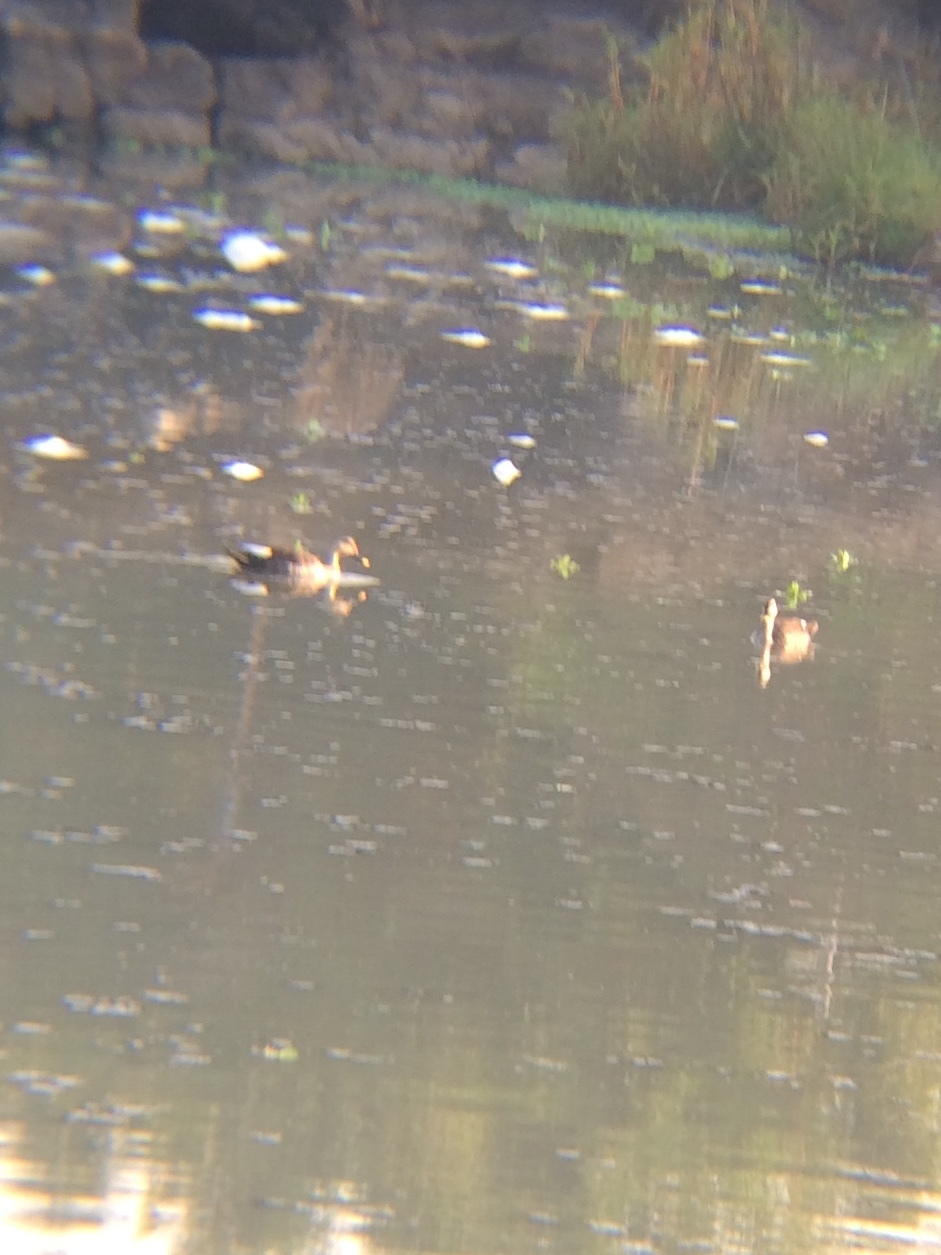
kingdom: Animalia
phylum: Chordata
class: Aves
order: Anseriformes
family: Anatidae
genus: Anas
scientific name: Anas poecilorhyncha
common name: Indian spot-billed duck
